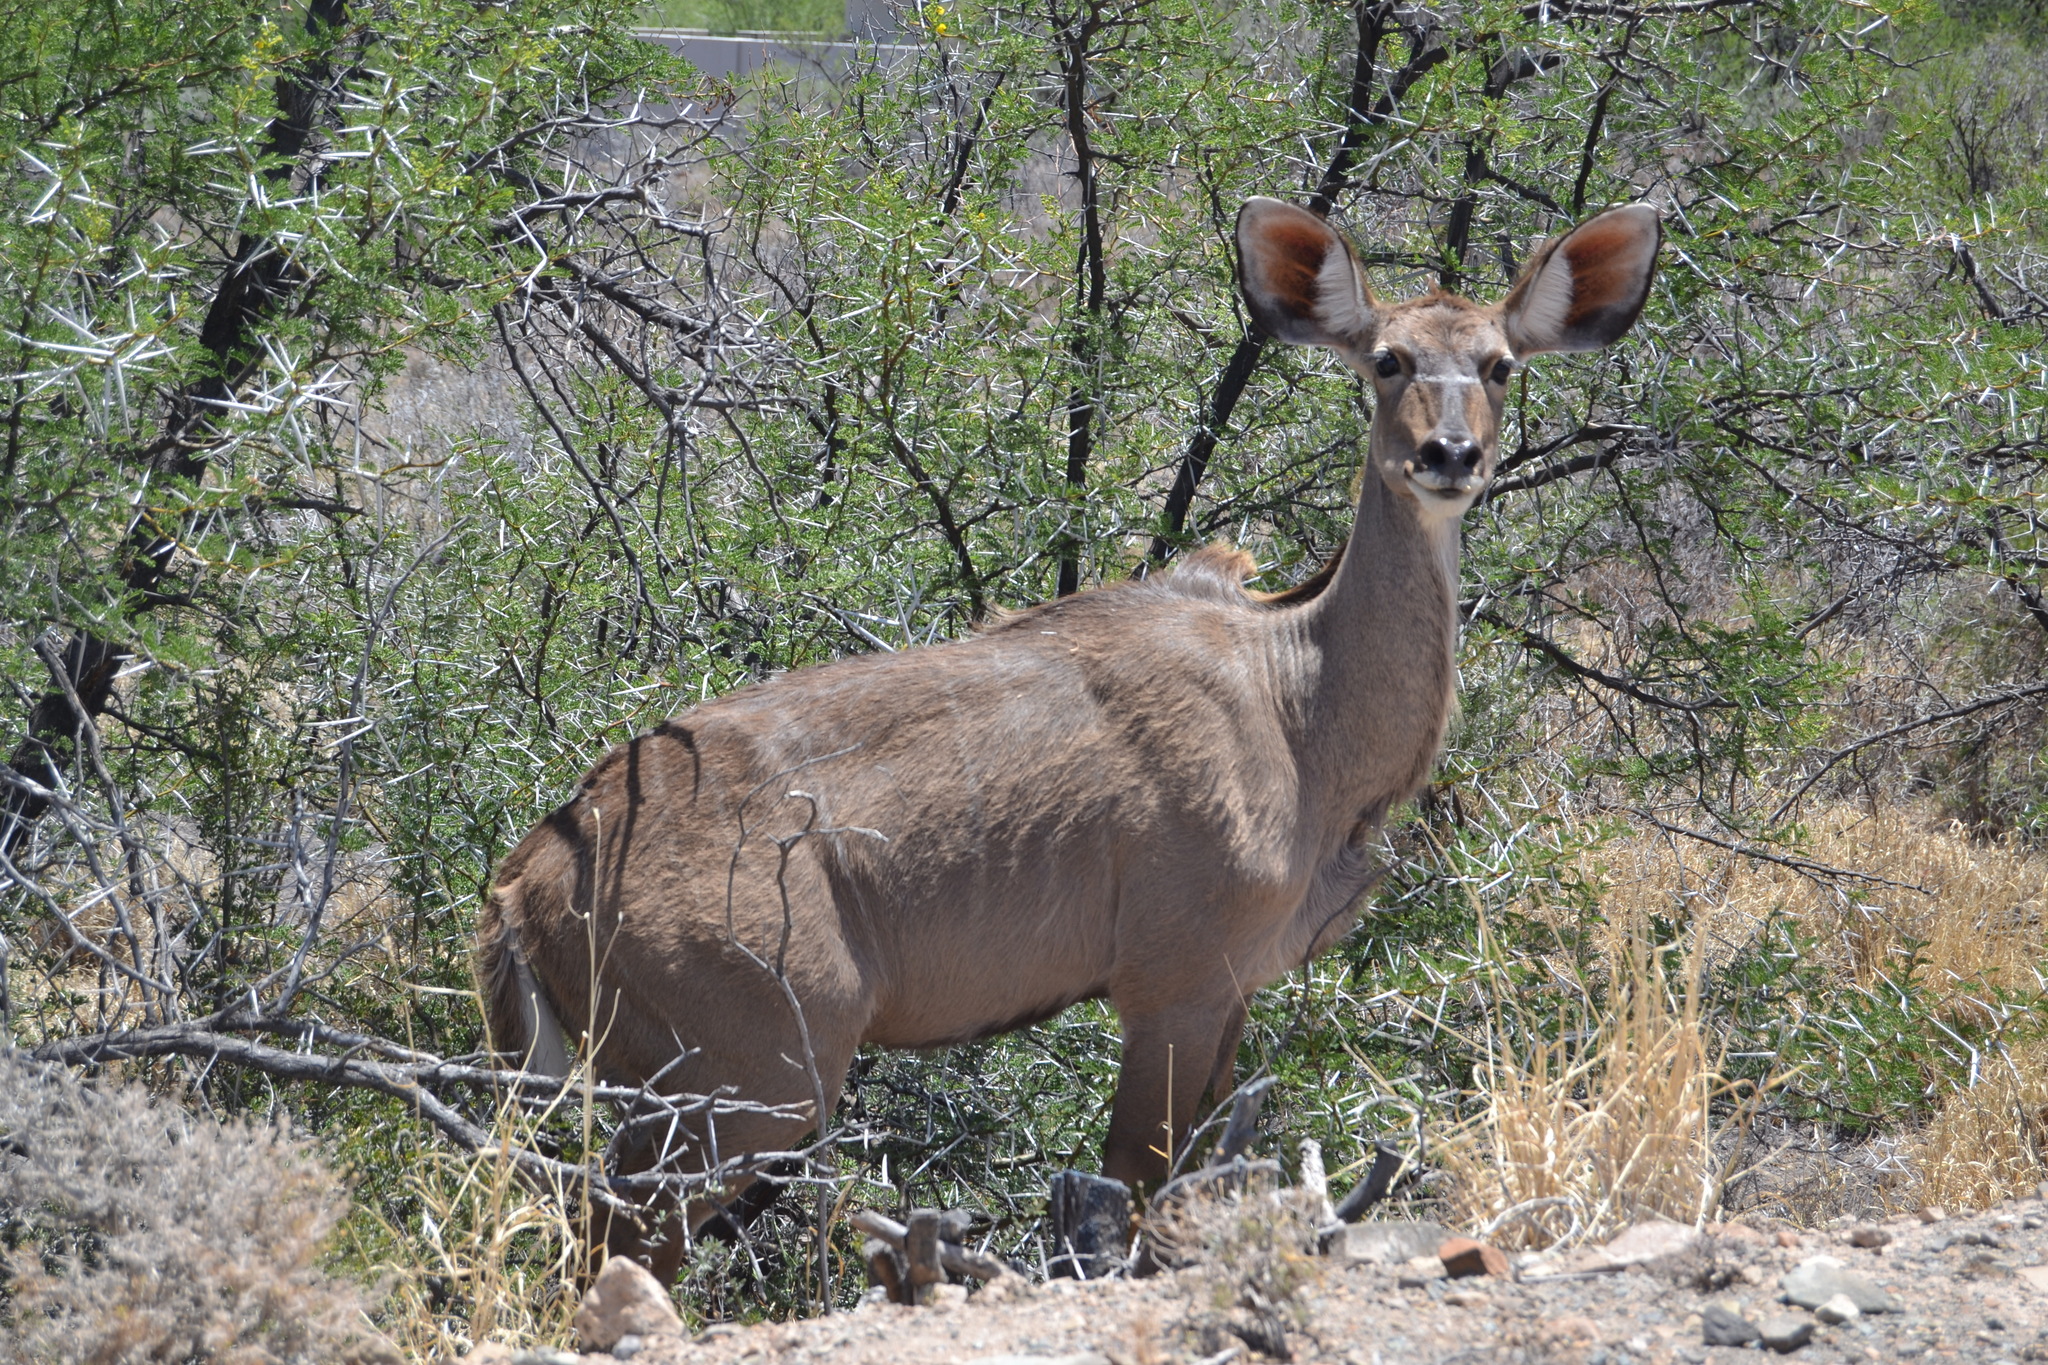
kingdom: Animalia
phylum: Chordata
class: Mammalia
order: Artiodactyla
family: Bovidae
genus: Tragelaphus
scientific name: Tragelaphus strepsiceros
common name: Greater kudu
